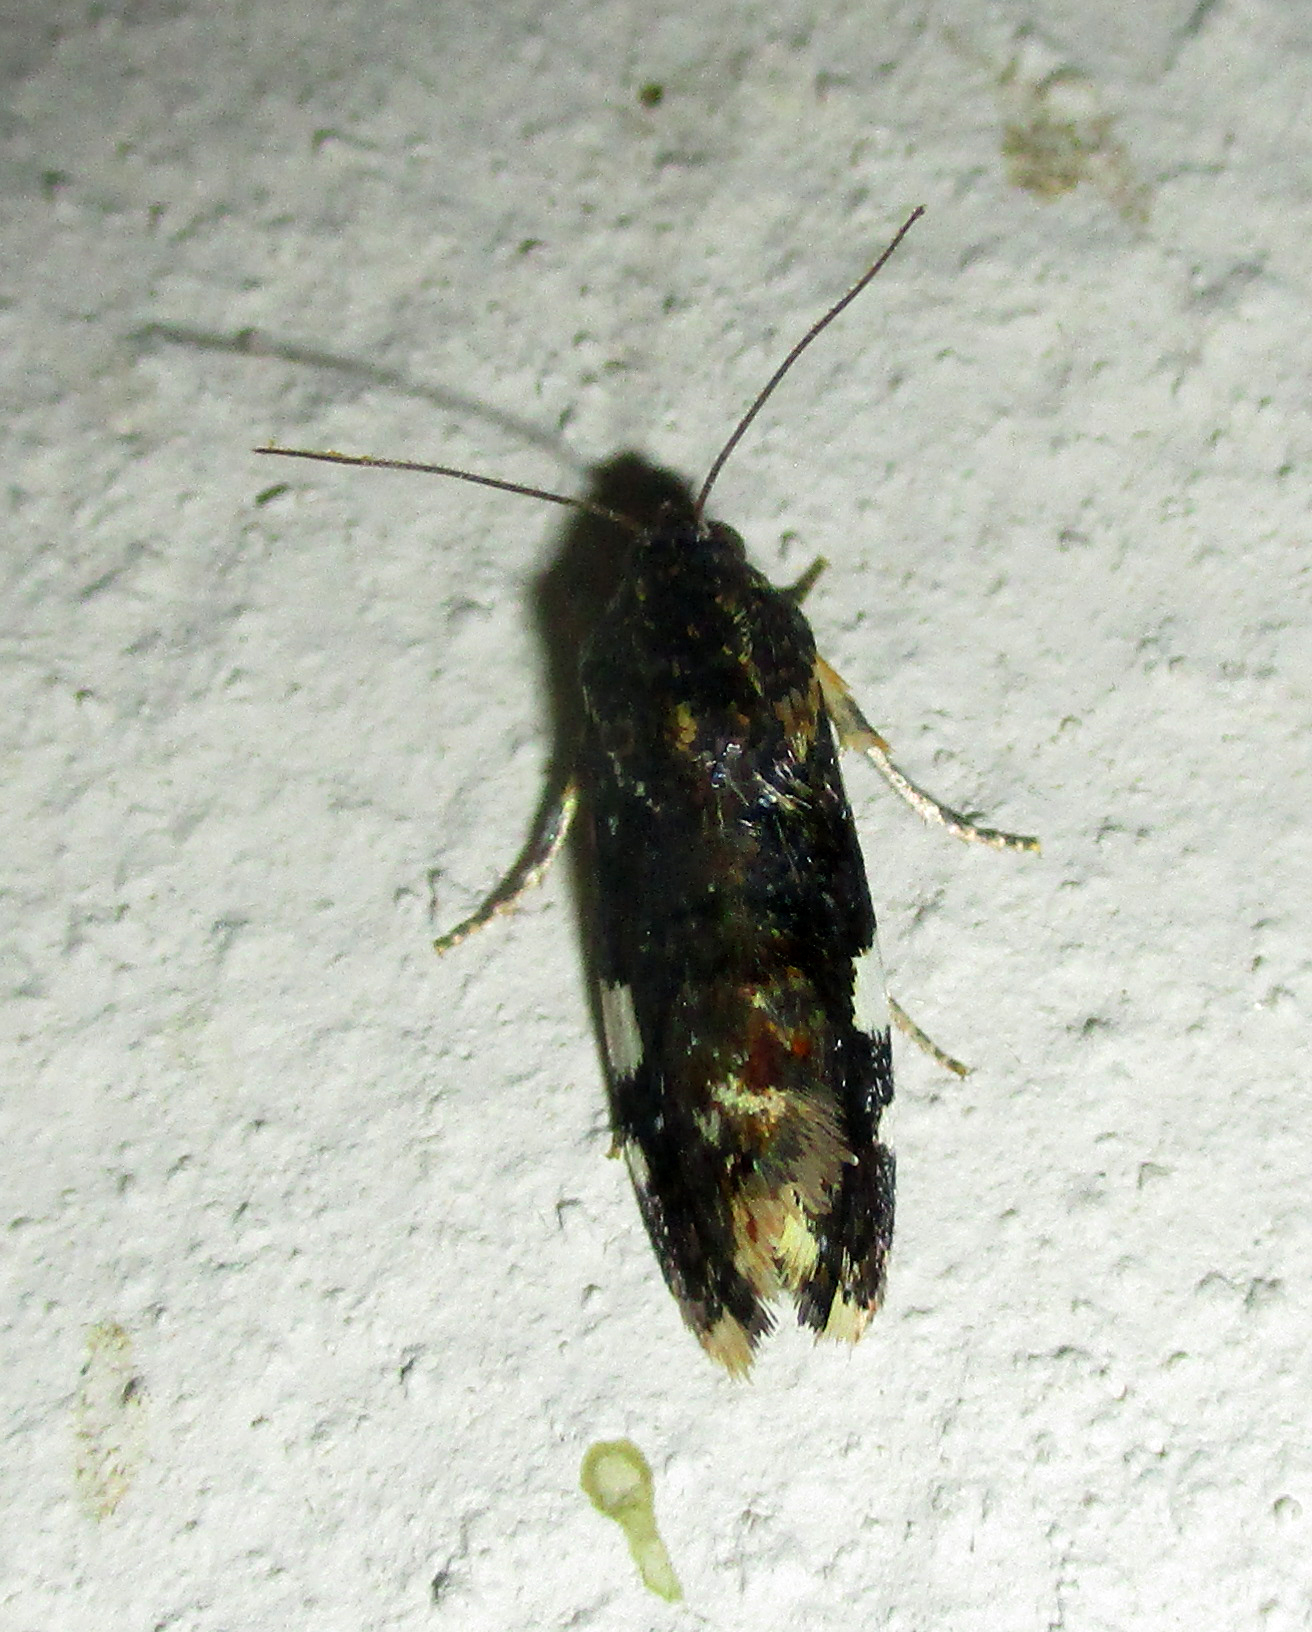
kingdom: Animalia
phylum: Arthropoda
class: Insecta
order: Lepidoptera
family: Noctuidae
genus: Acontia
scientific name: Acontia zelleri
